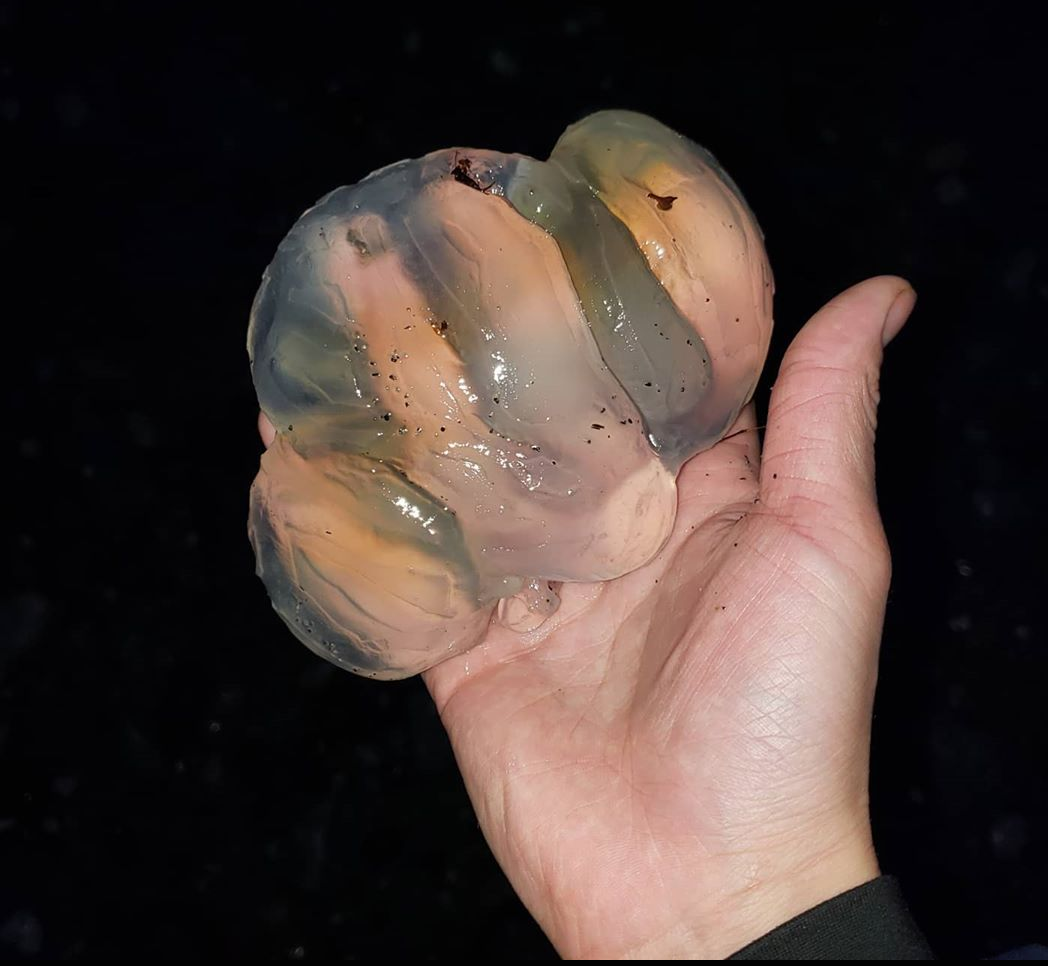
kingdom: Animalia
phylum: Cnidaria
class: Scyphozoa
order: Semaeostomeae
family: Ulmaridae
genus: Aurelia
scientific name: Aurelia labiata
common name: Pacific moon jelly
